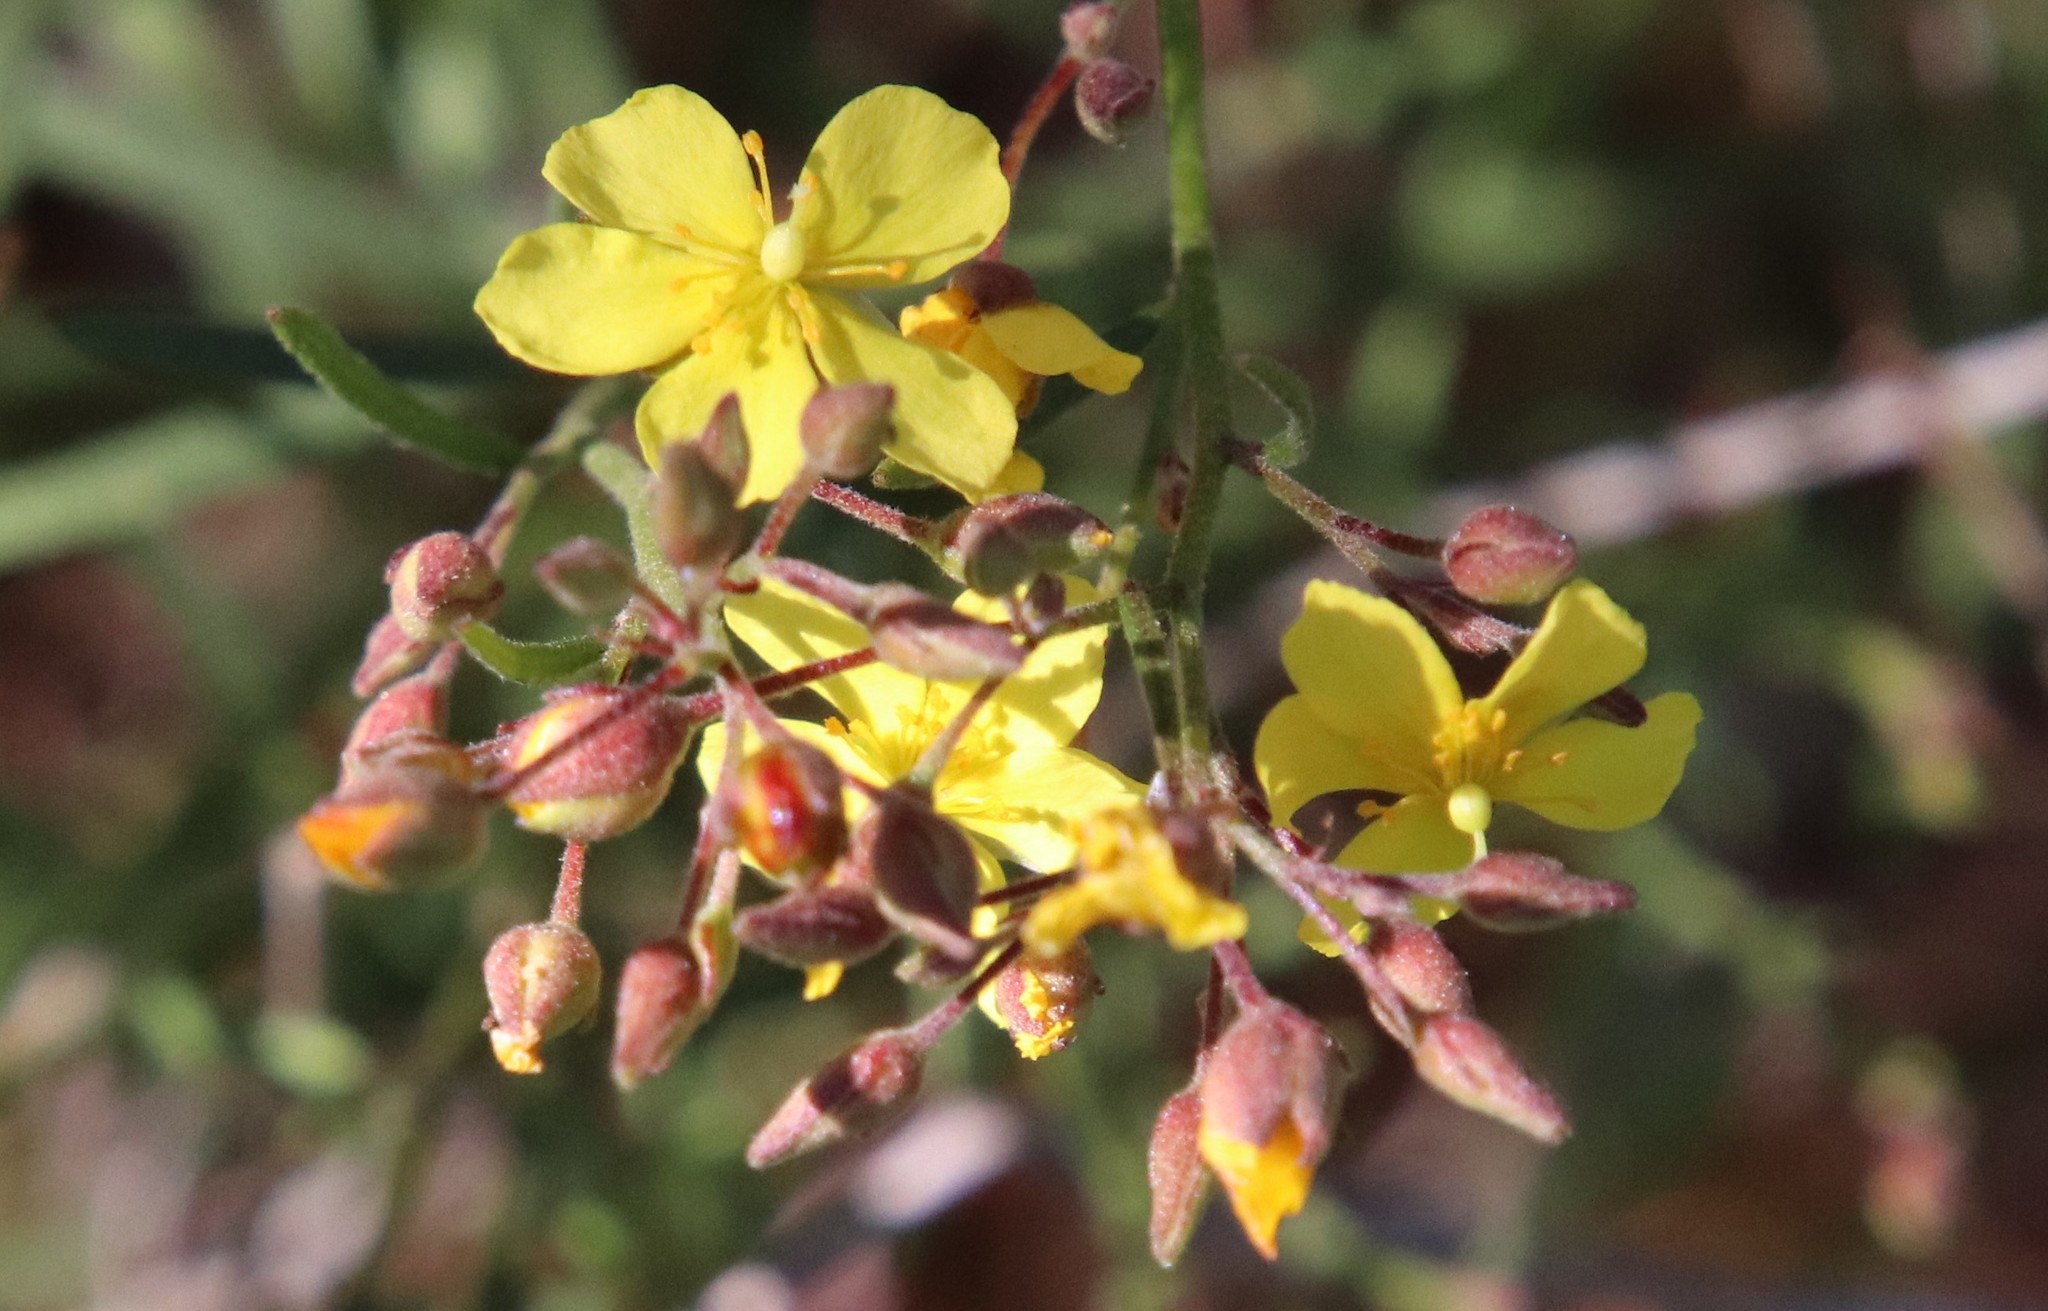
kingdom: Plantae
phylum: Tracheophyta
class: Magnoliopsida
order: Malvales
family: Cistaceae
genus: Crocanthemum
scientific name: Crocanthemum scoparium
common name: Broom-rose
